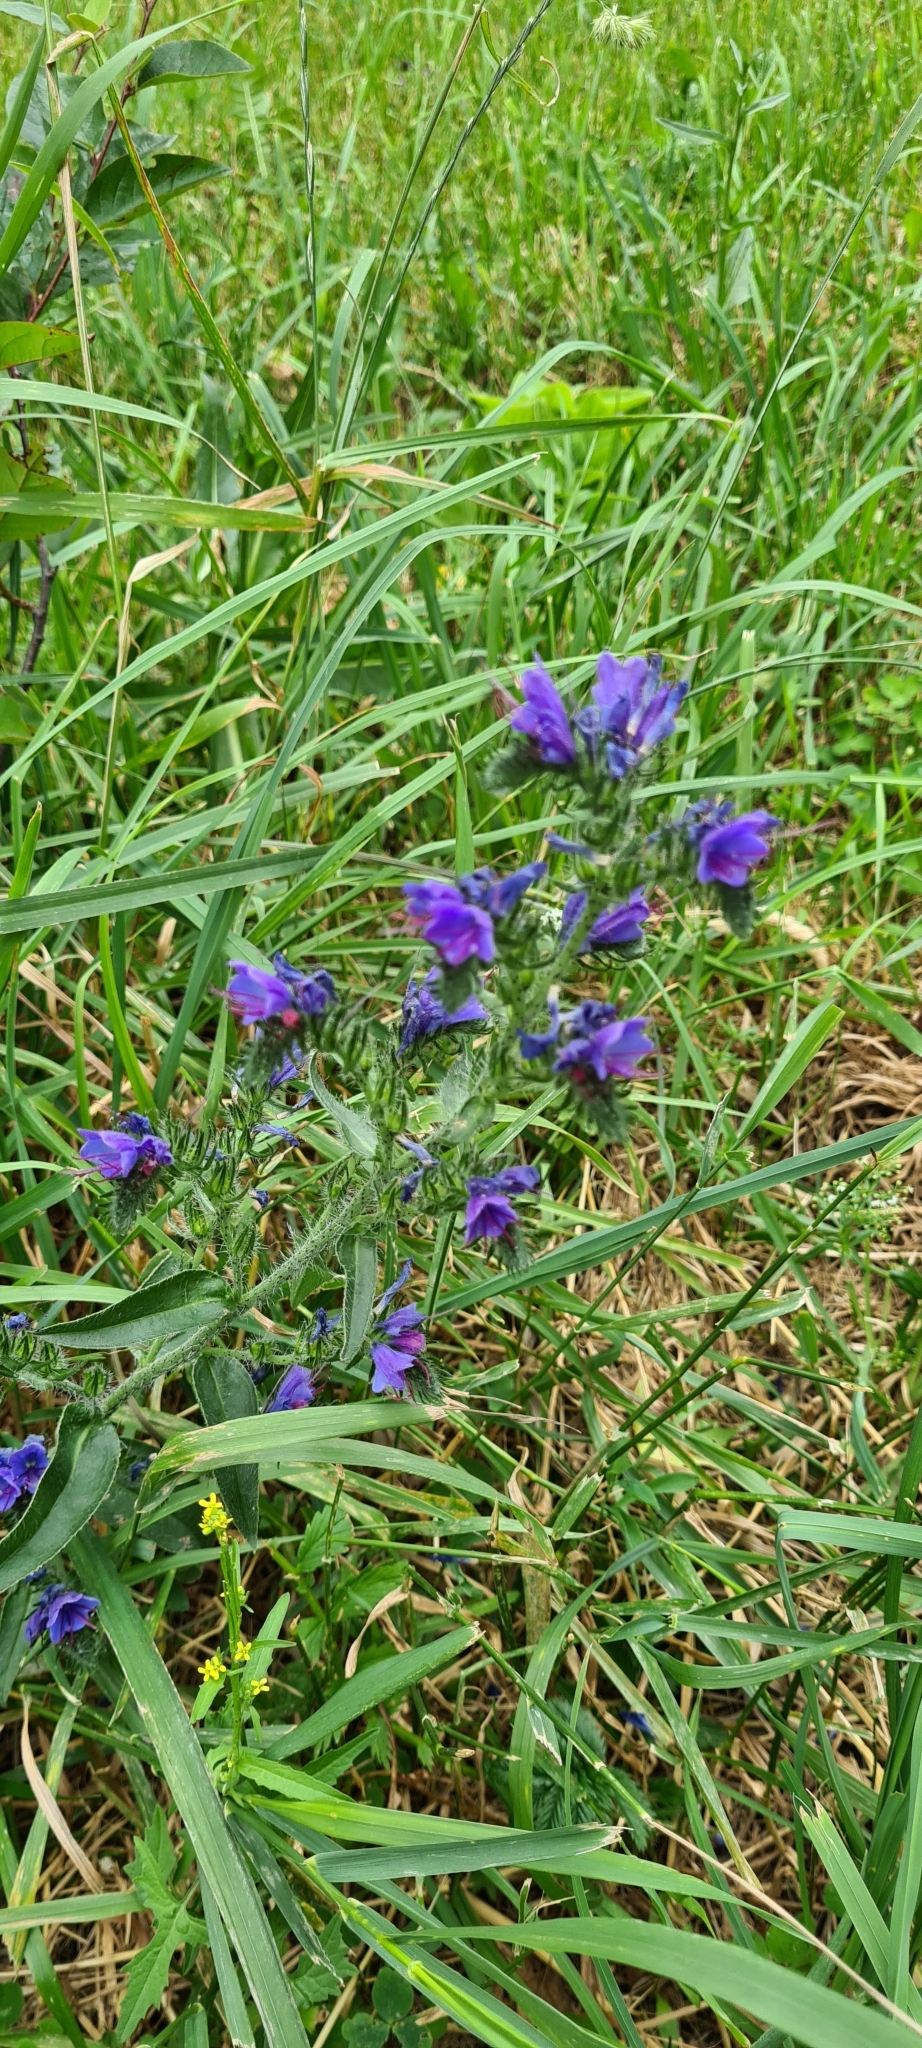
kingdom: Plantae
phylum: Tracheophyta
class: Magnoliopsida
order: Boraginales
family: Boraginaceae
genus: Echium
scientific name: Echium vulgare
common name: Common viper's bugloss
